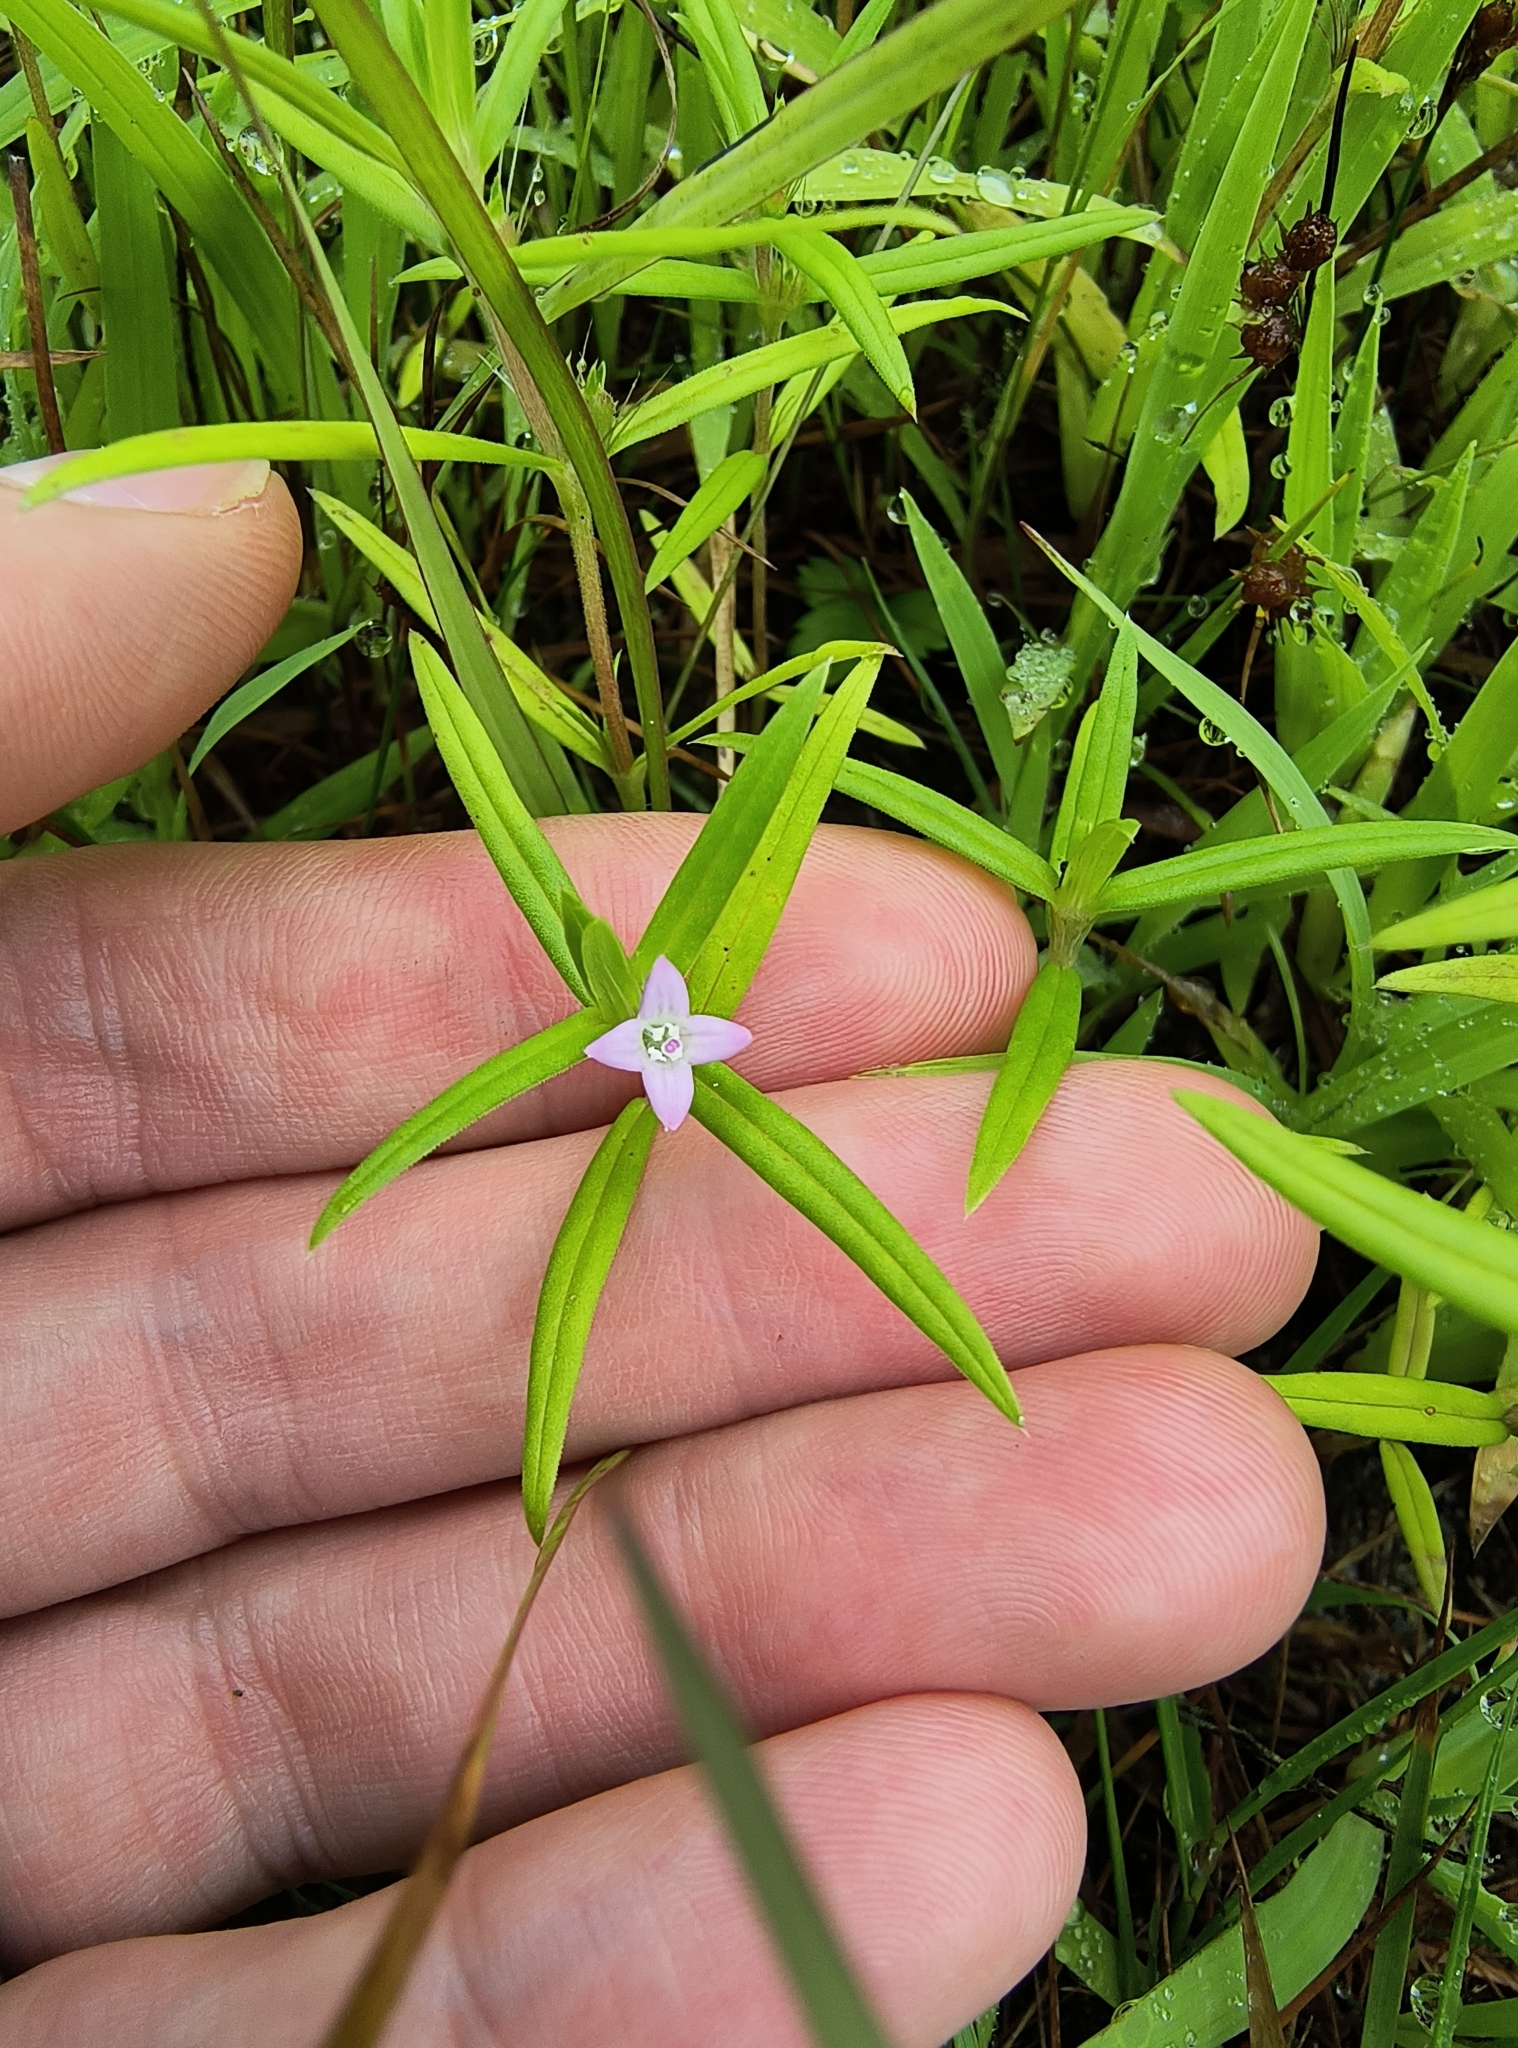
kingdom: Plantae
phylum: Tracheophyta
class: Magnoliopsida
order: Gentianales
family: Rubiaceae
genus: Hexasepalum
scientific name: Hexasepalum teres
